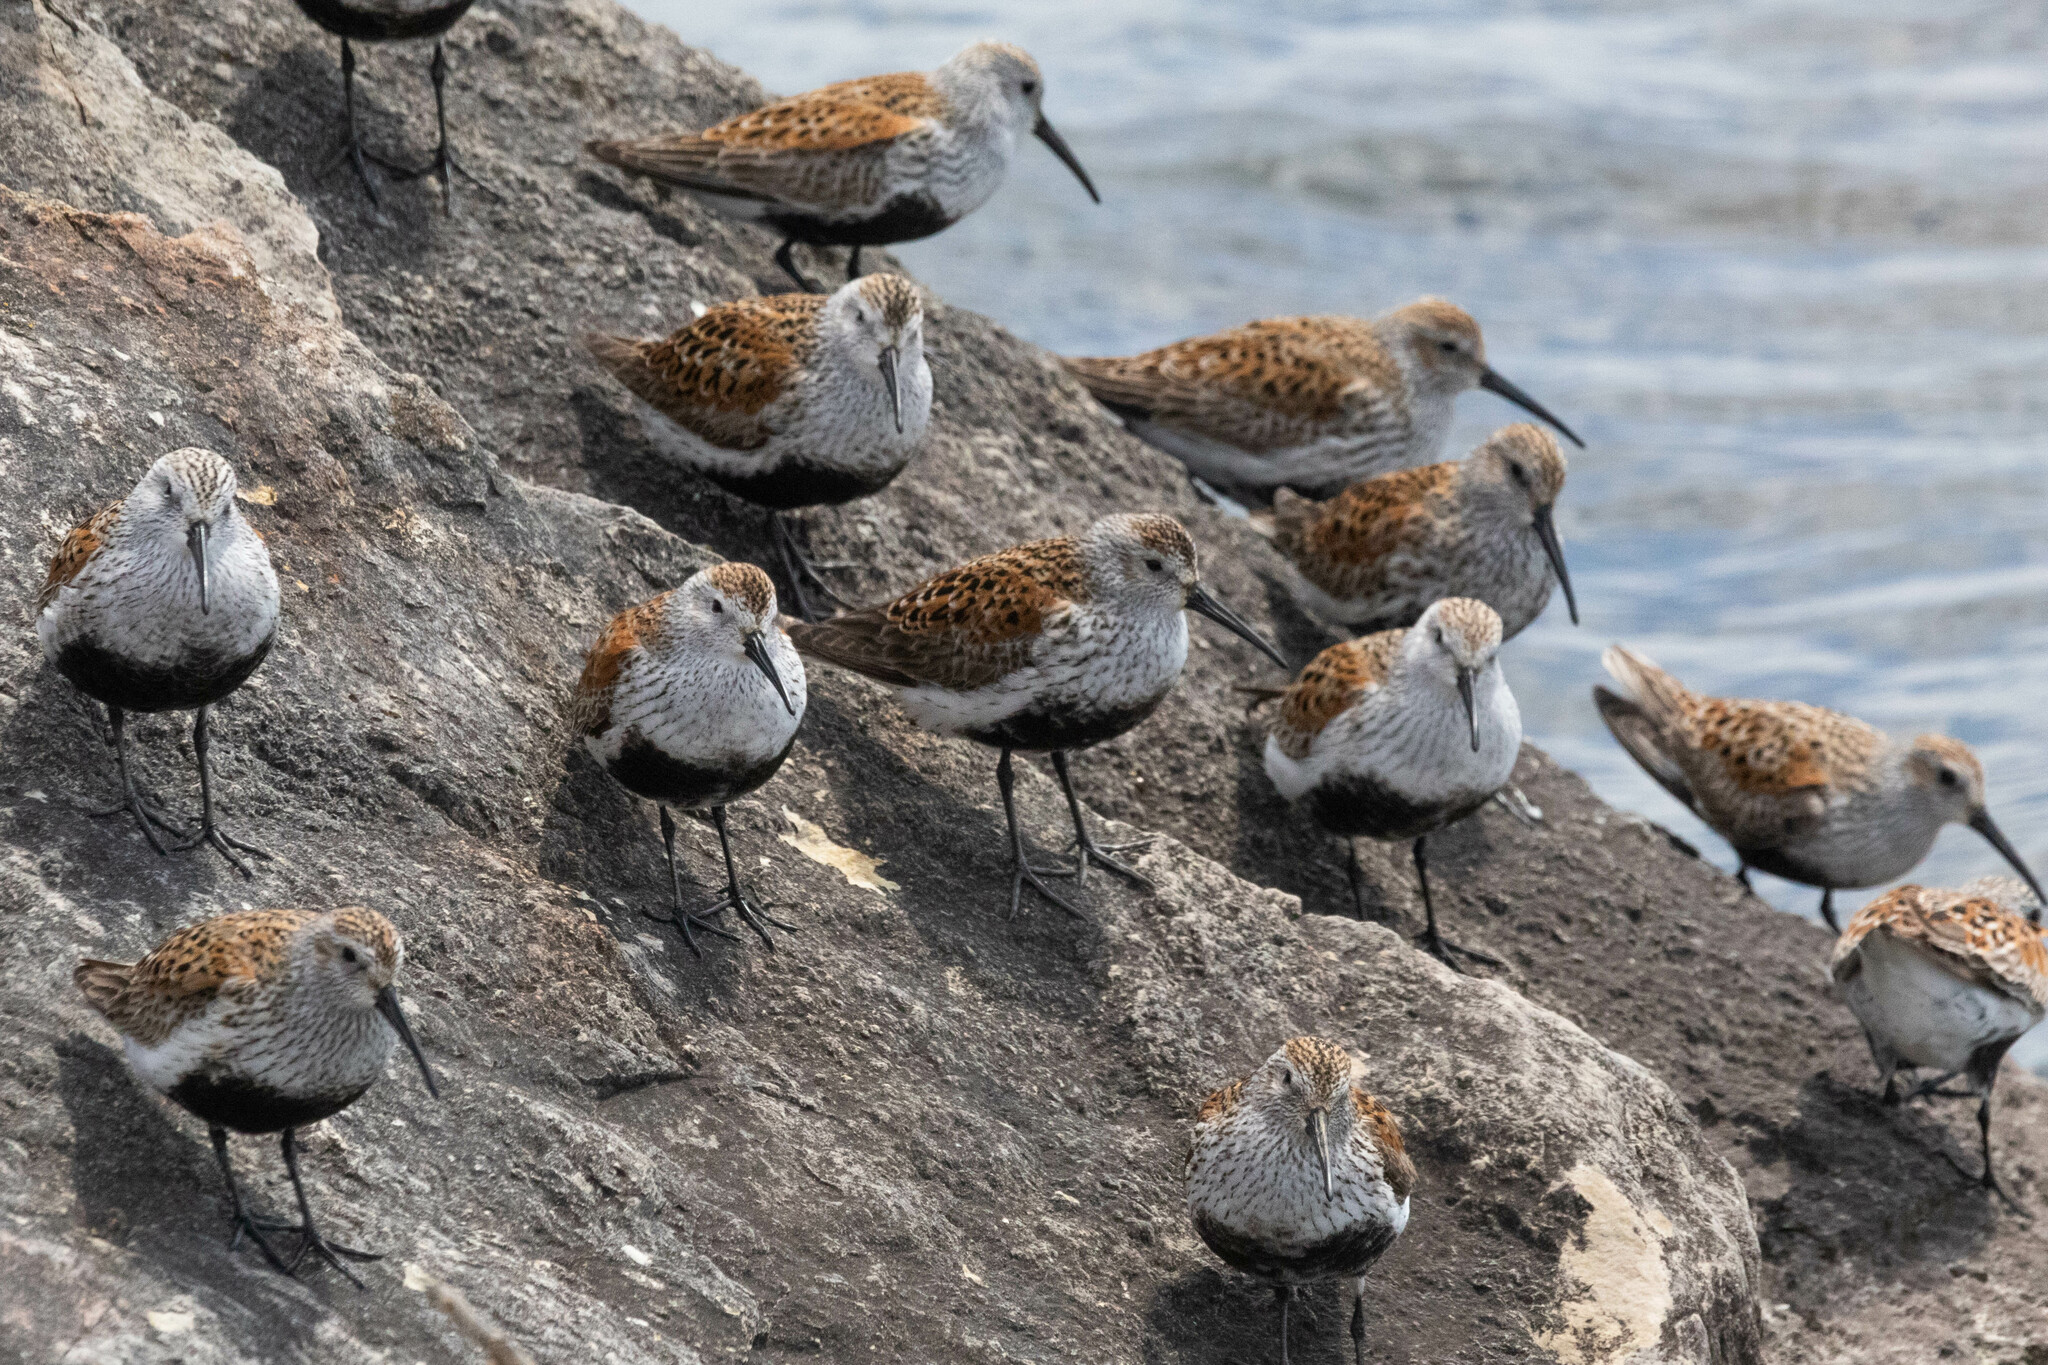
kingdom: Animalia
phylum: Chordata
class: Aves
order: Charadriiformes
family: Scolopacidae
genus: Calidris
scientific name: Calidris alpina
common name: Dunlin
